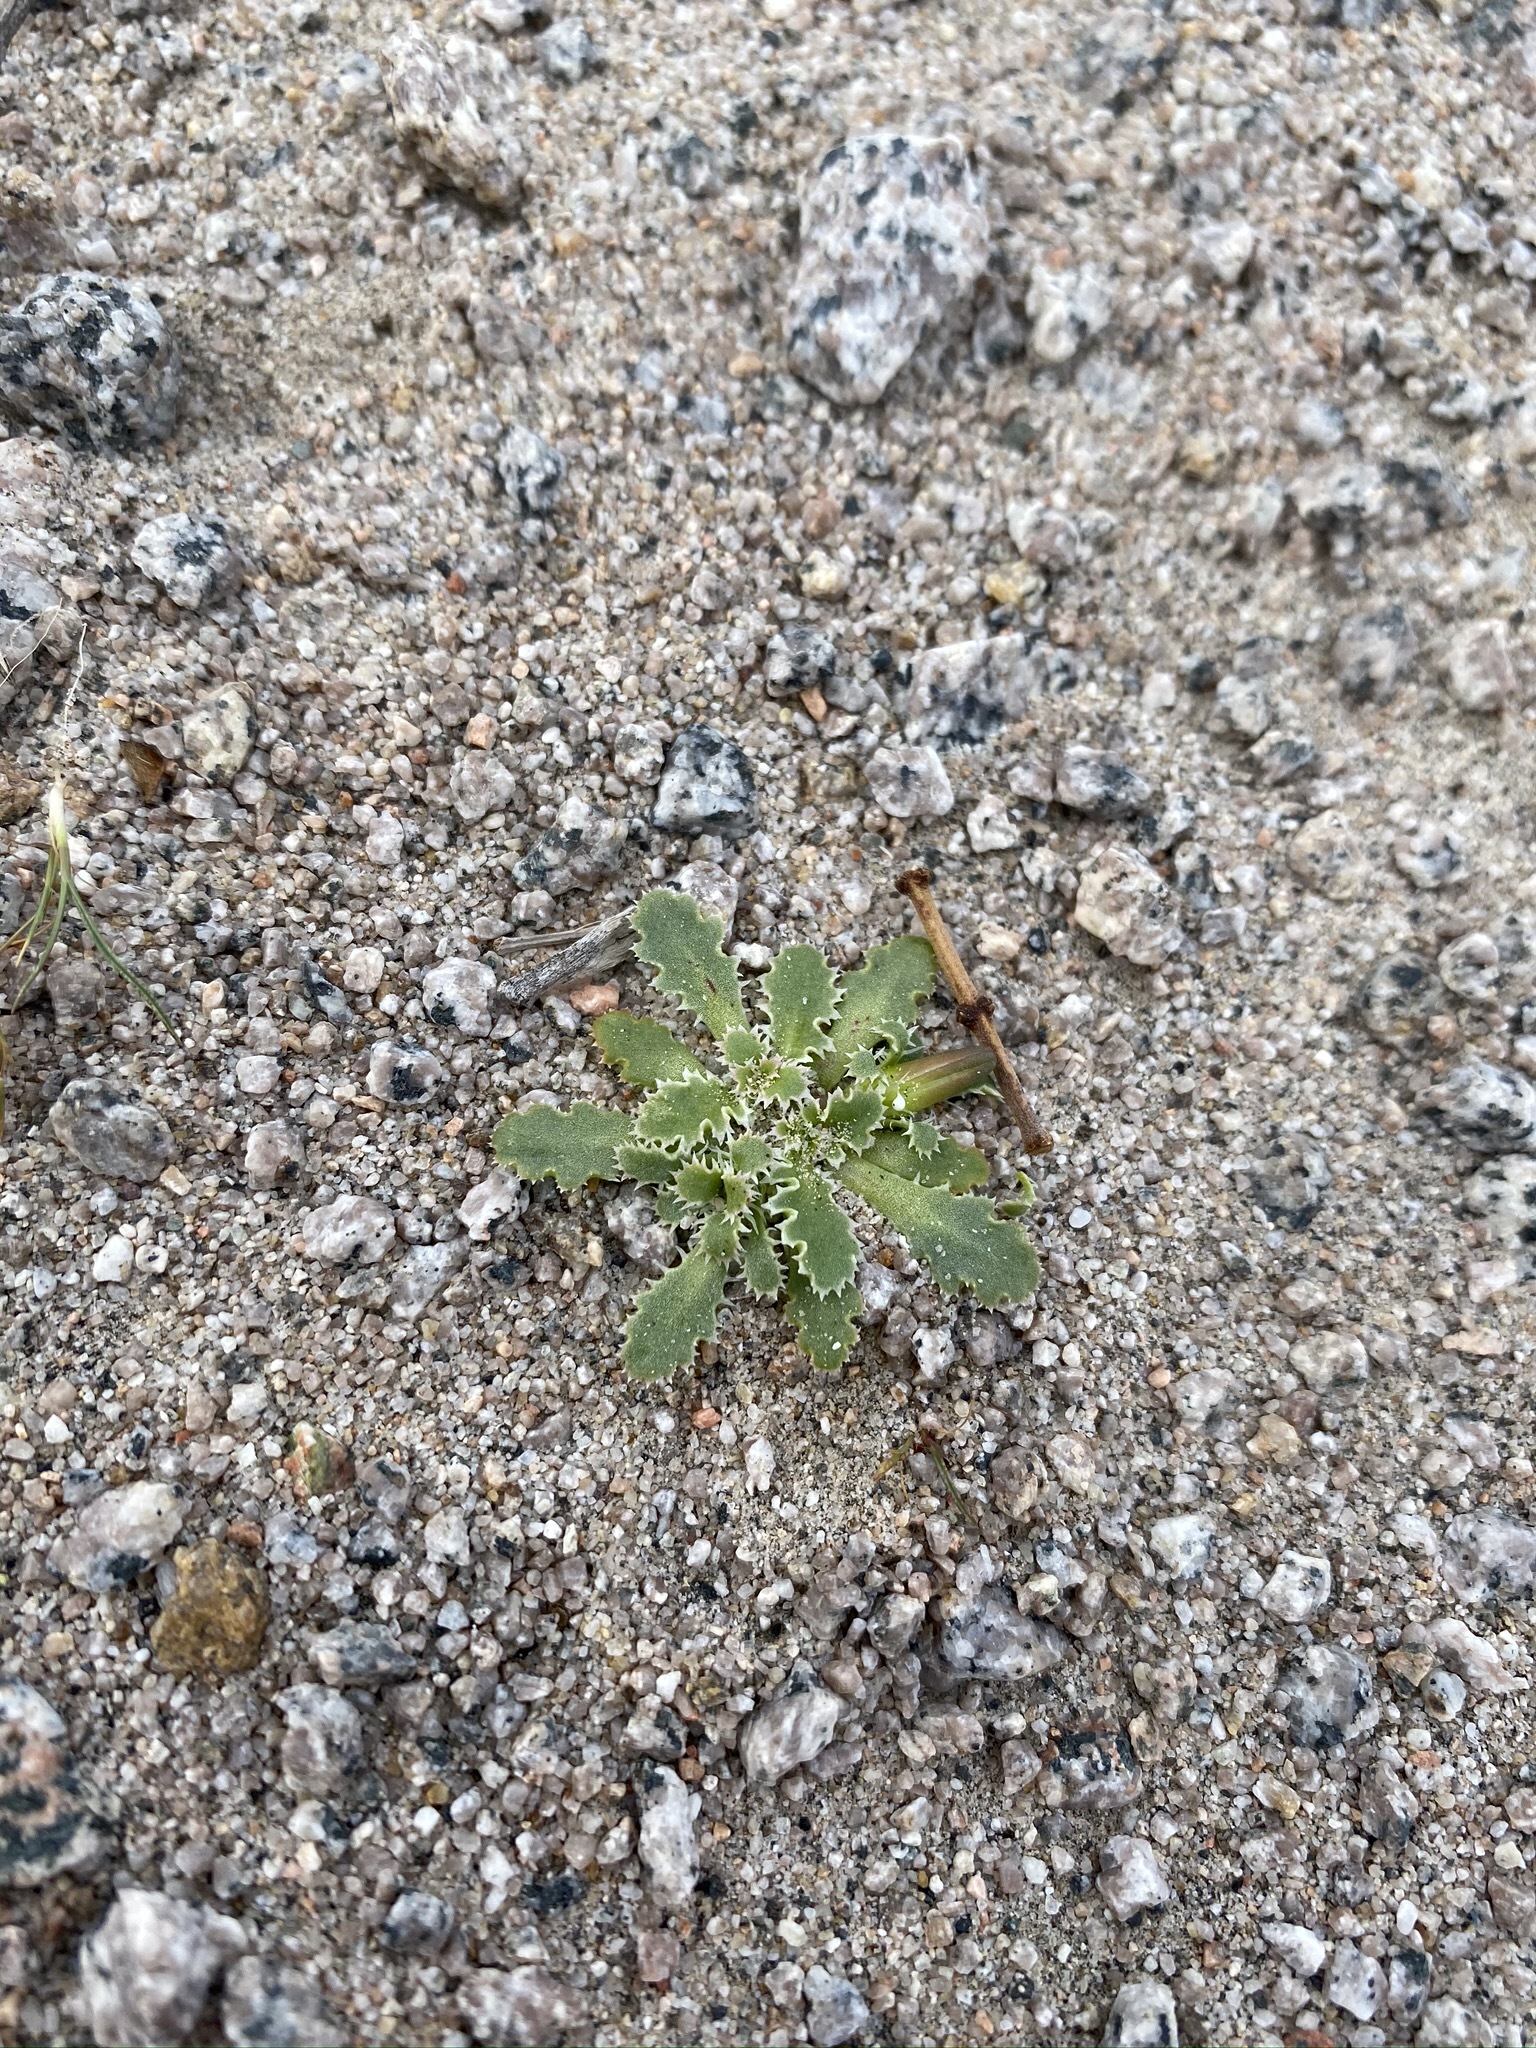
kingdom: Plantae
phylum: Tracheophyta
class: Magnoliopsida
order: Asterales
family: Asteraceae
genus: Glyptopleura
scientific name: Glyptopleura marginata
